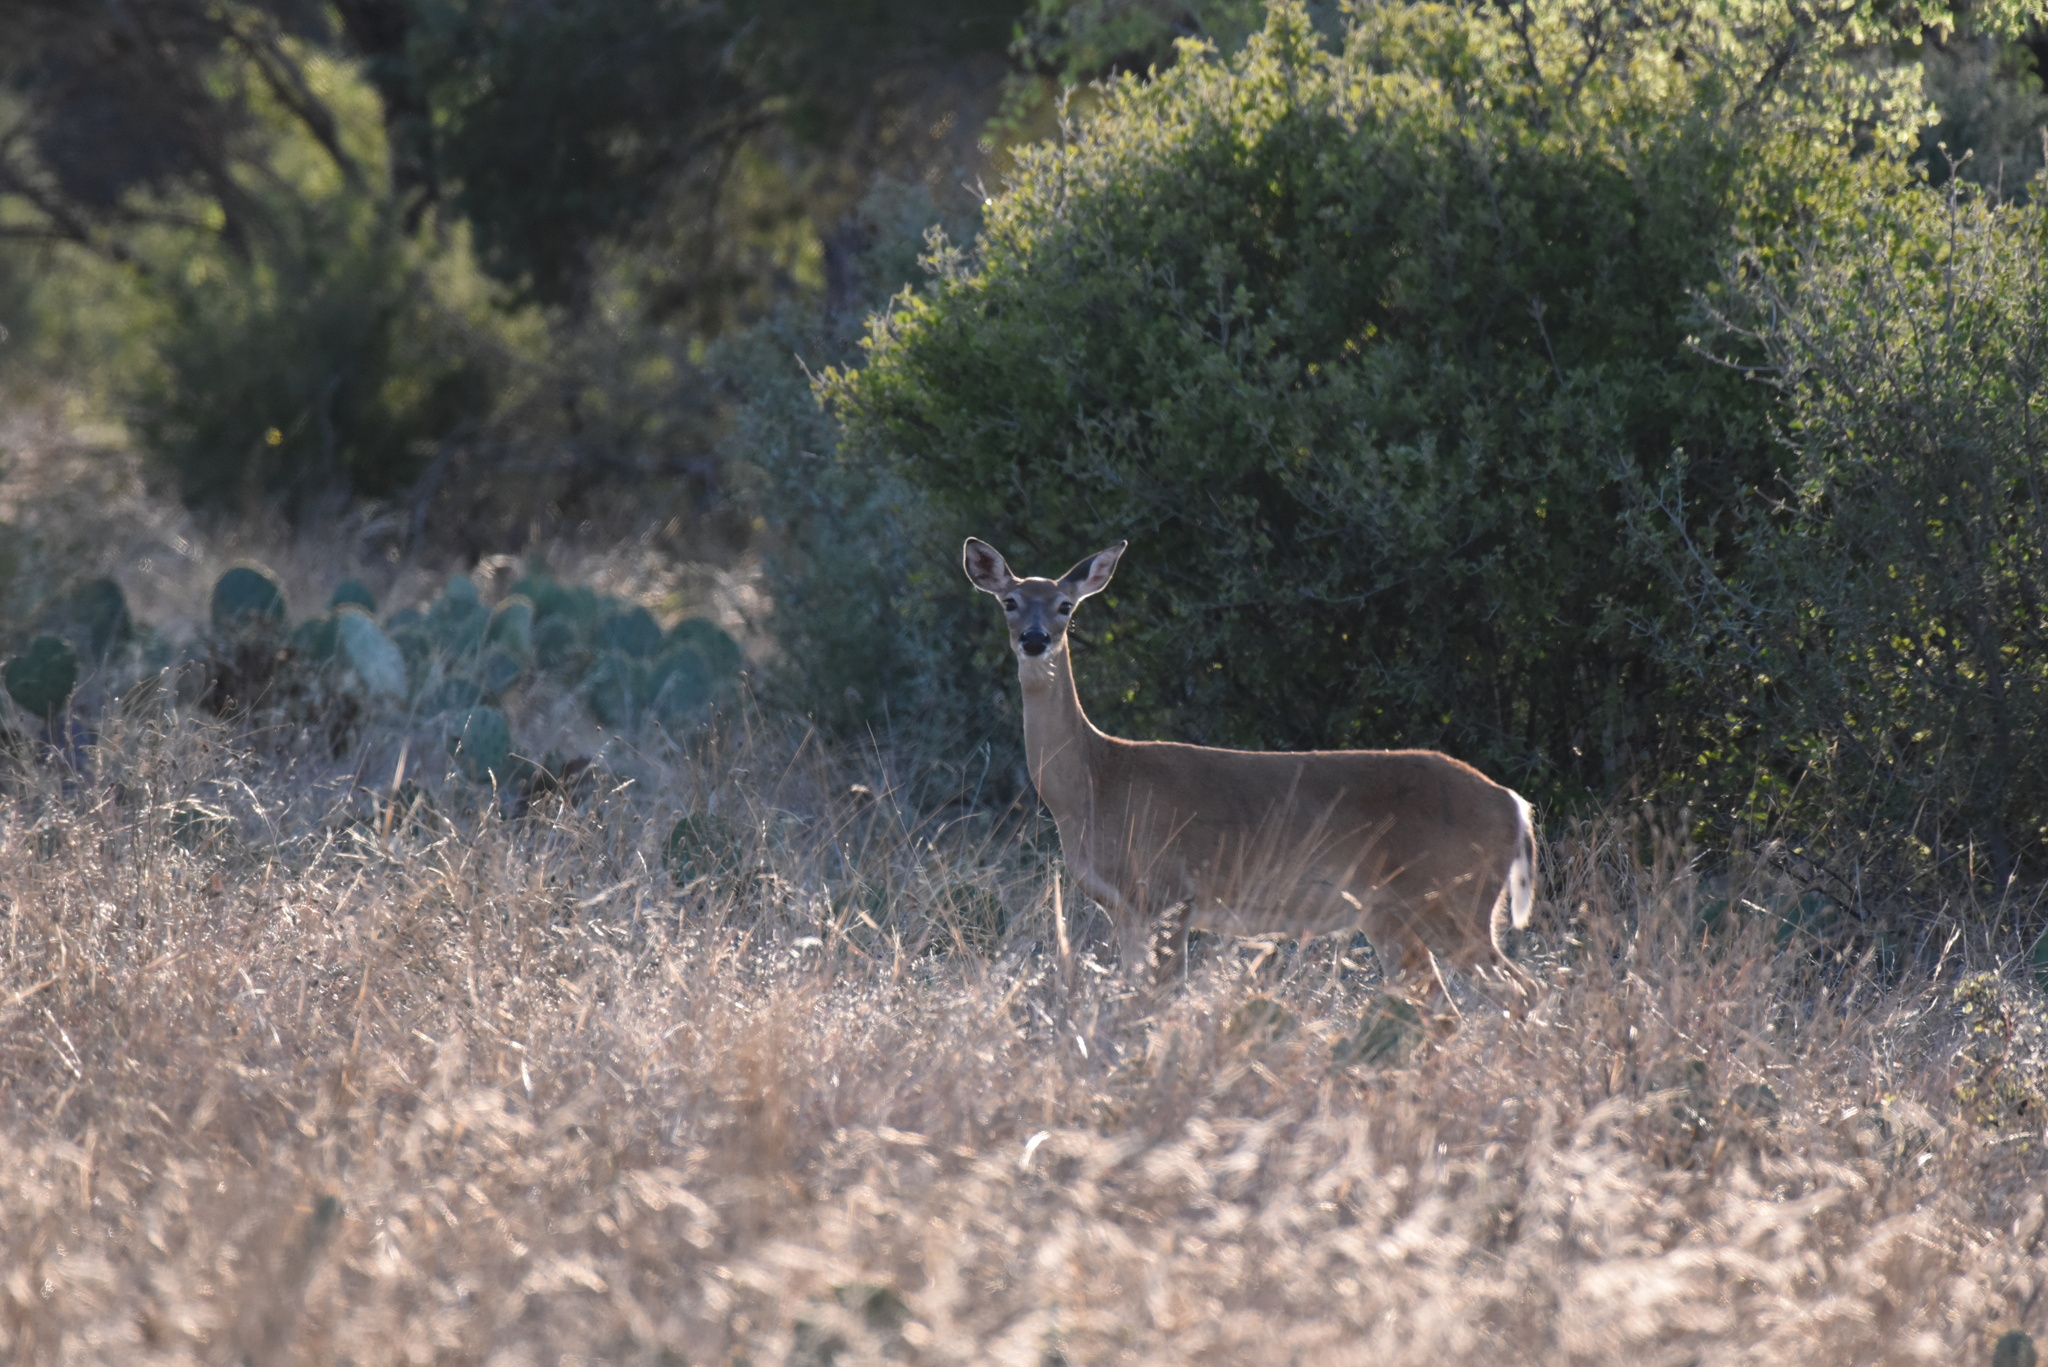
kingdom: Animalia
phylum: Chordata
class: Mammalia
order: Artiodactyla
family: Cervidae
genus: Odocoileus
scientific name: Odocoileus virginianus
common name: White-tailed deer
